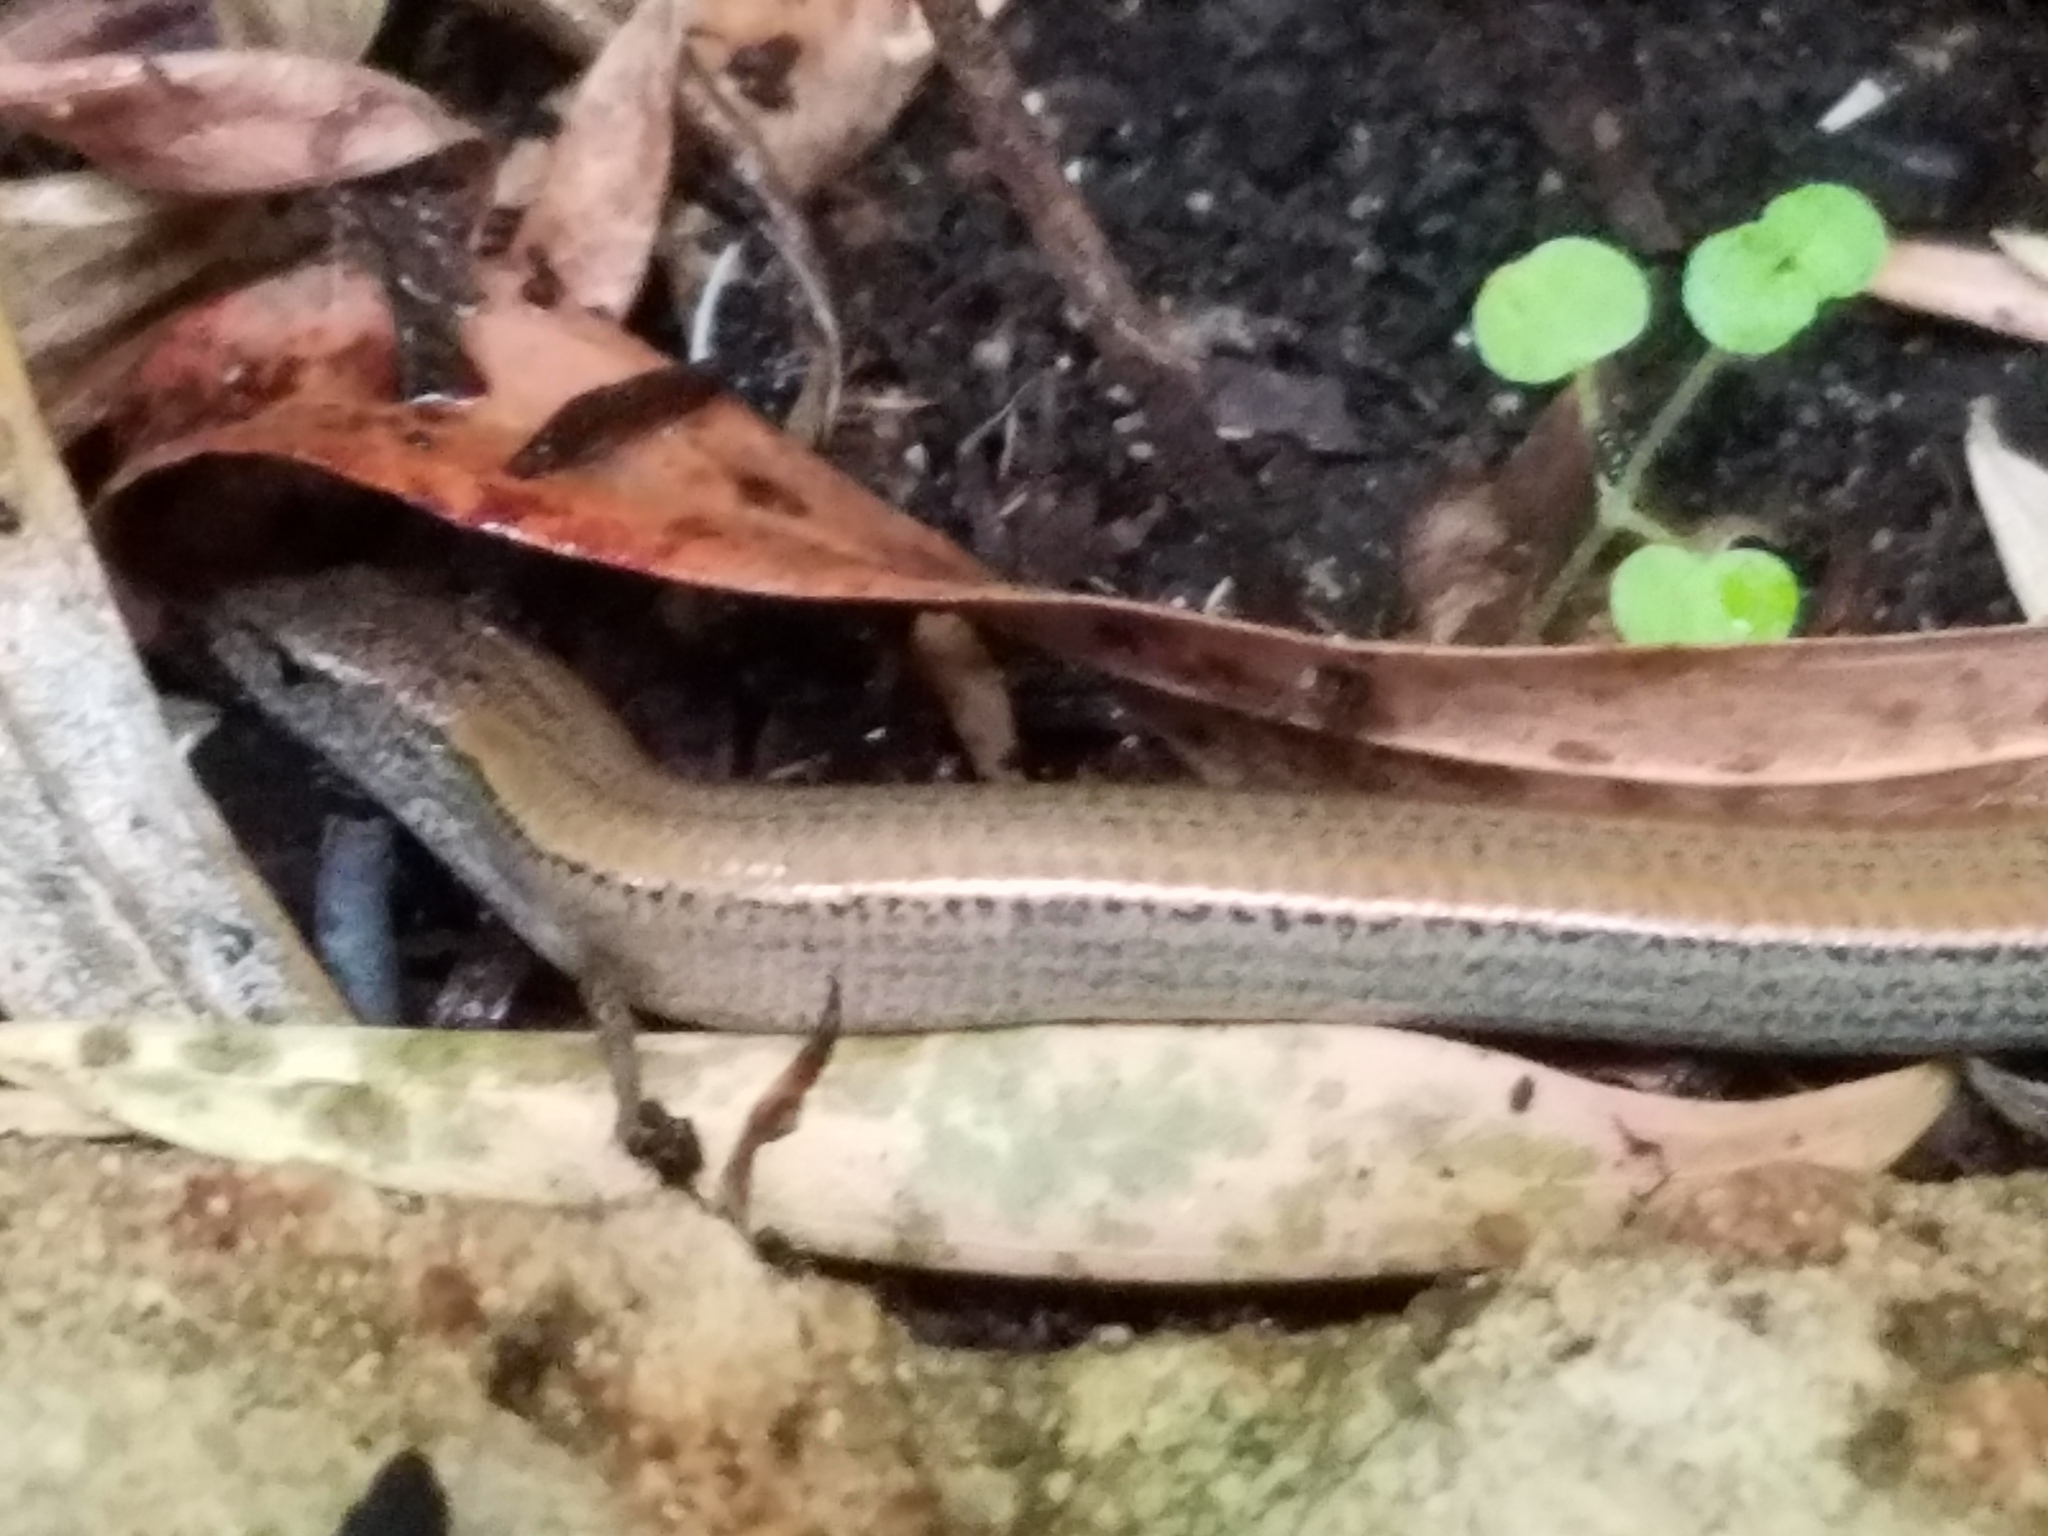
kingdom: Animalia
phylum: Chordata
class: Squamata
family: Scincidae
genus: Hemiergis
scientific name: Hemiergis quadrilineatus
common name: Two-toed earless skink
